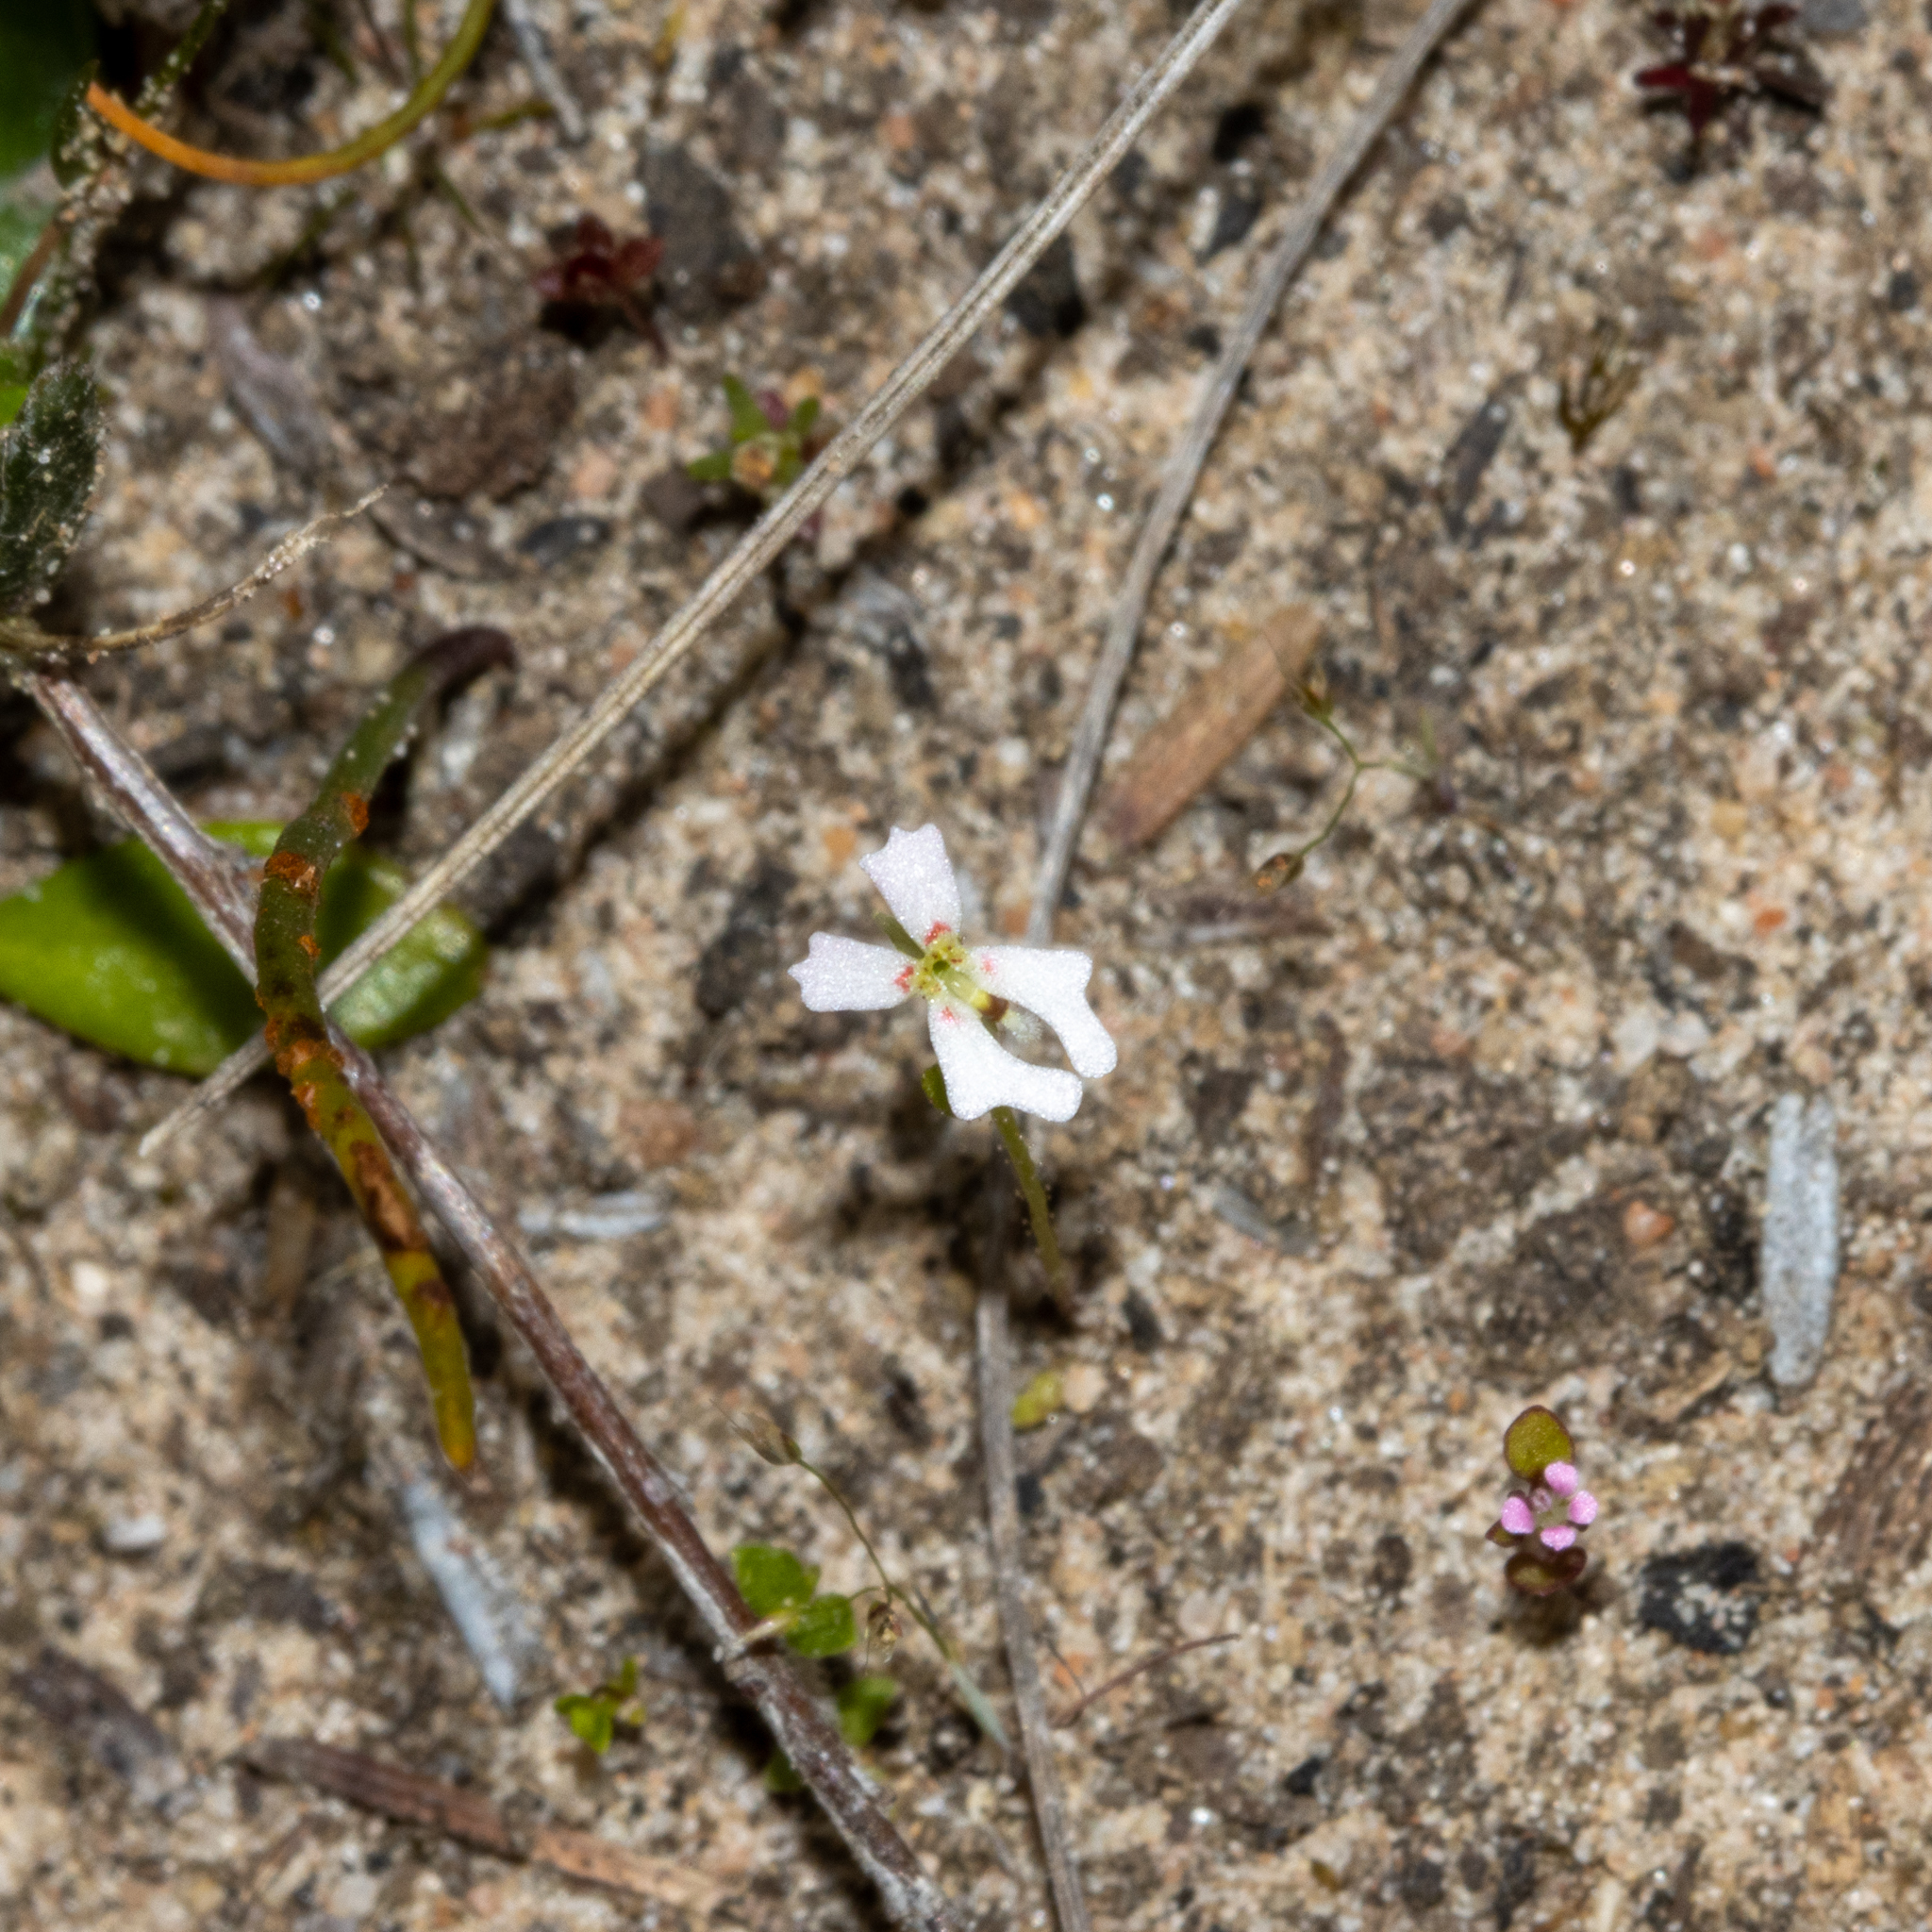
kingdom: Plantae
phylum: Tracheophyta
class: Magnoliopsida
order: Asterales
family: Stylidiaceae
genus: Stylidium
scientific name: Stylidium calcaratum
